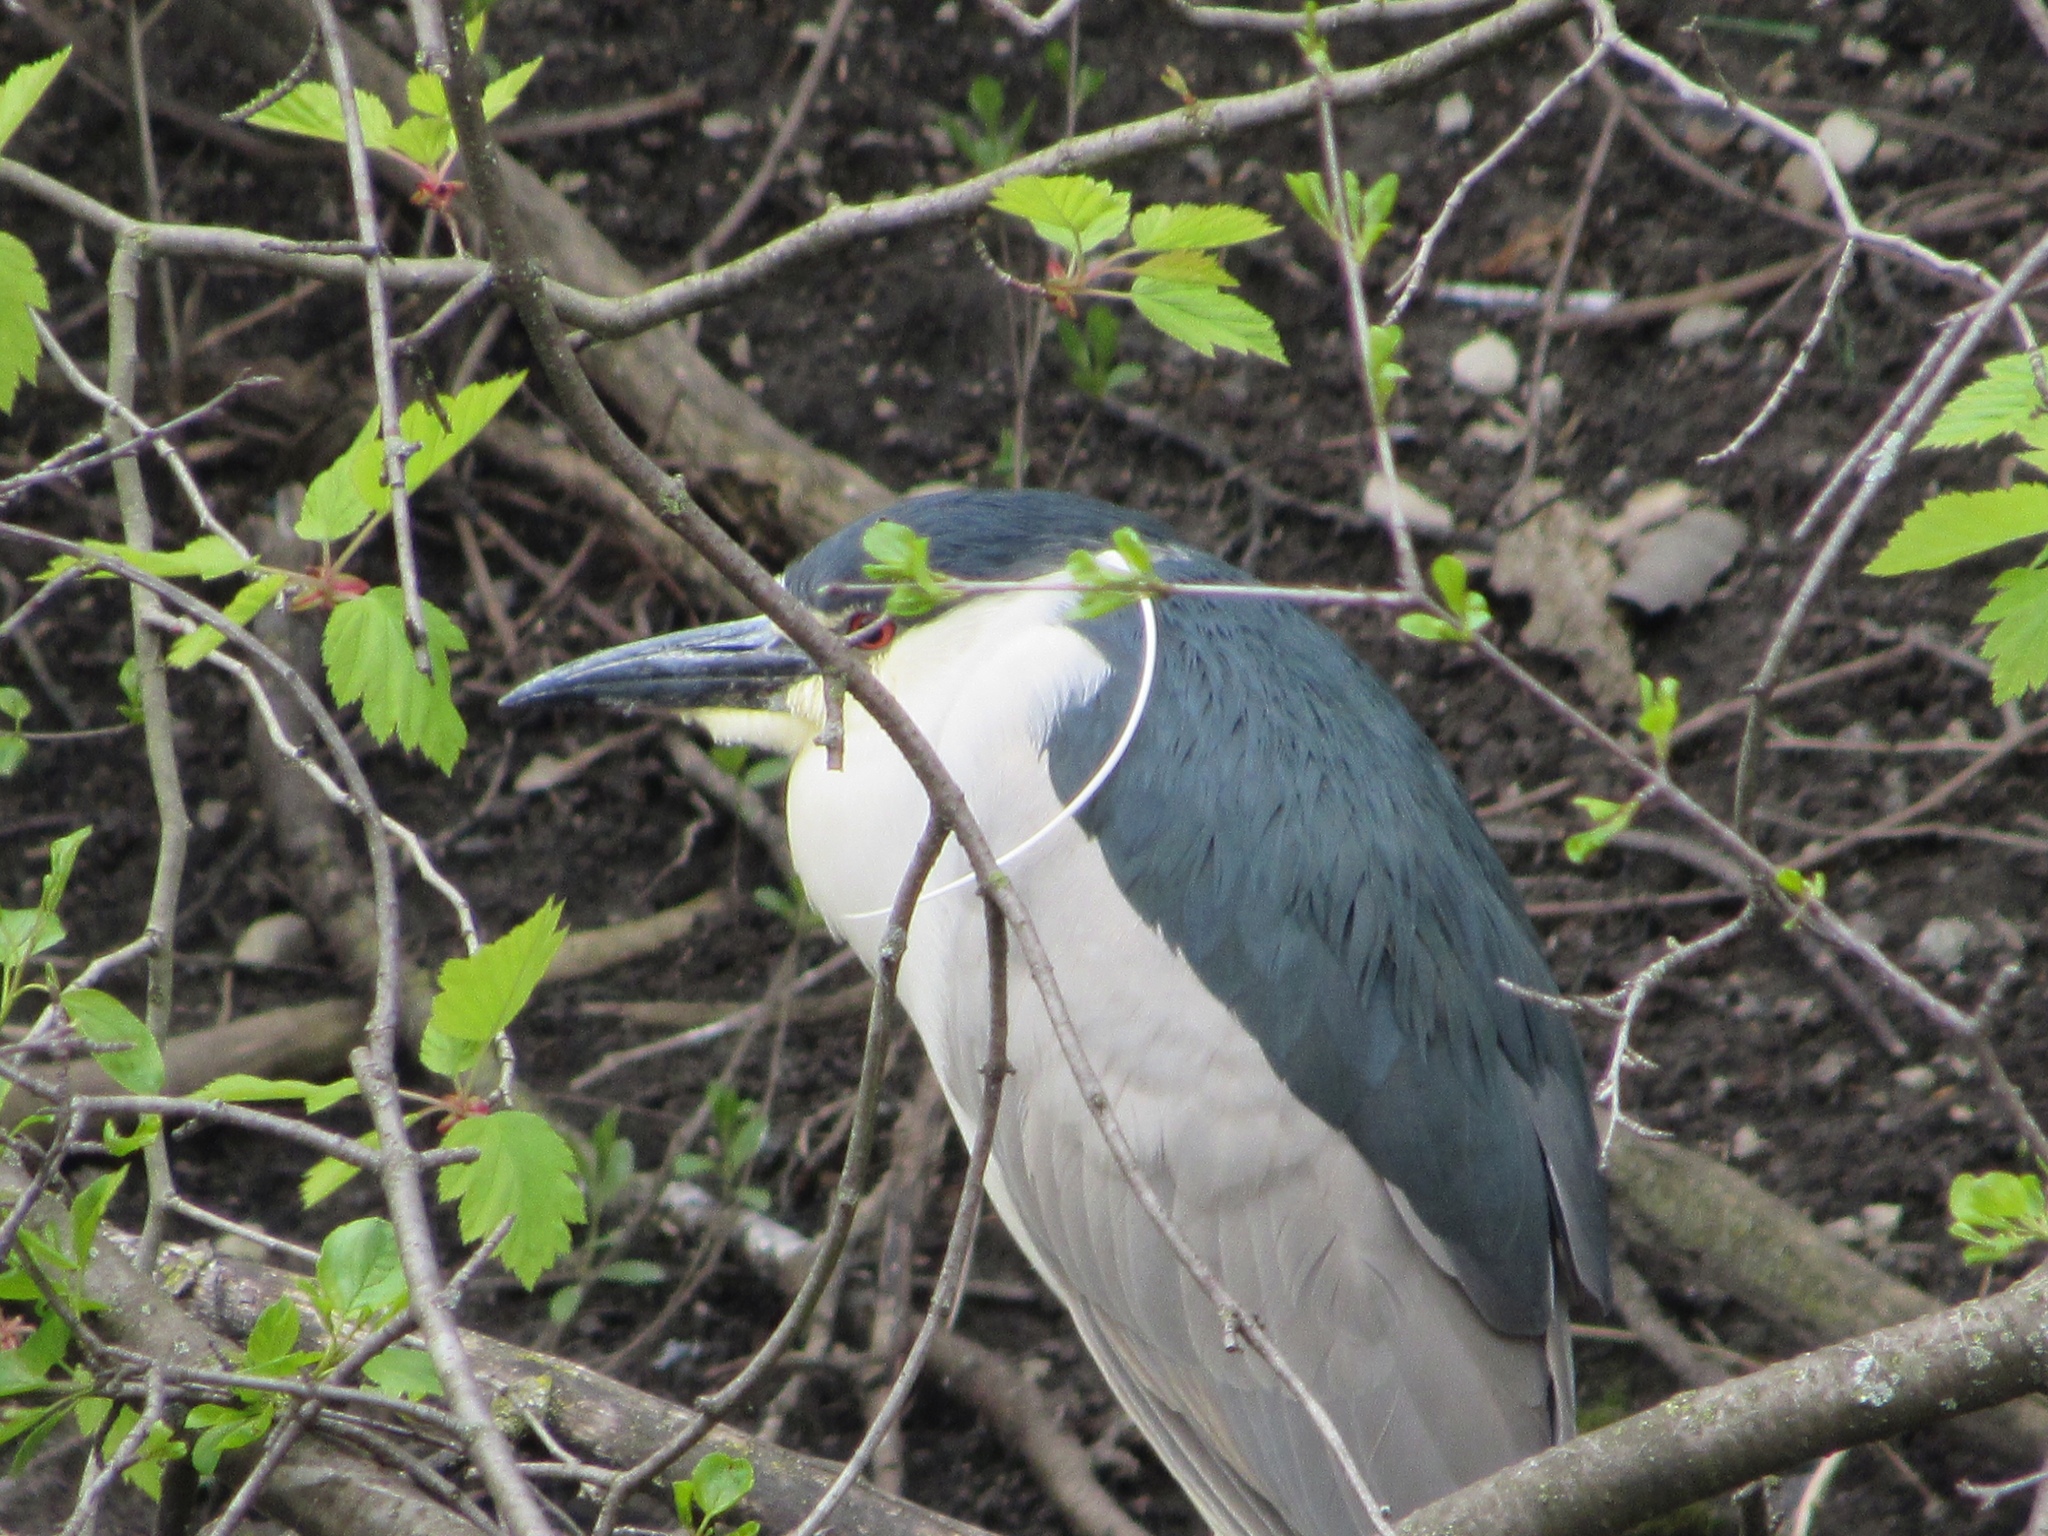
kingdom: Animalia
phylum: Chordata
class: Aves
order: Pelecaniformes
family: Ardeidae
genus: Nycticorax
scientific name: Nycticorax nycticorax
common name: Black-crowned night heron
